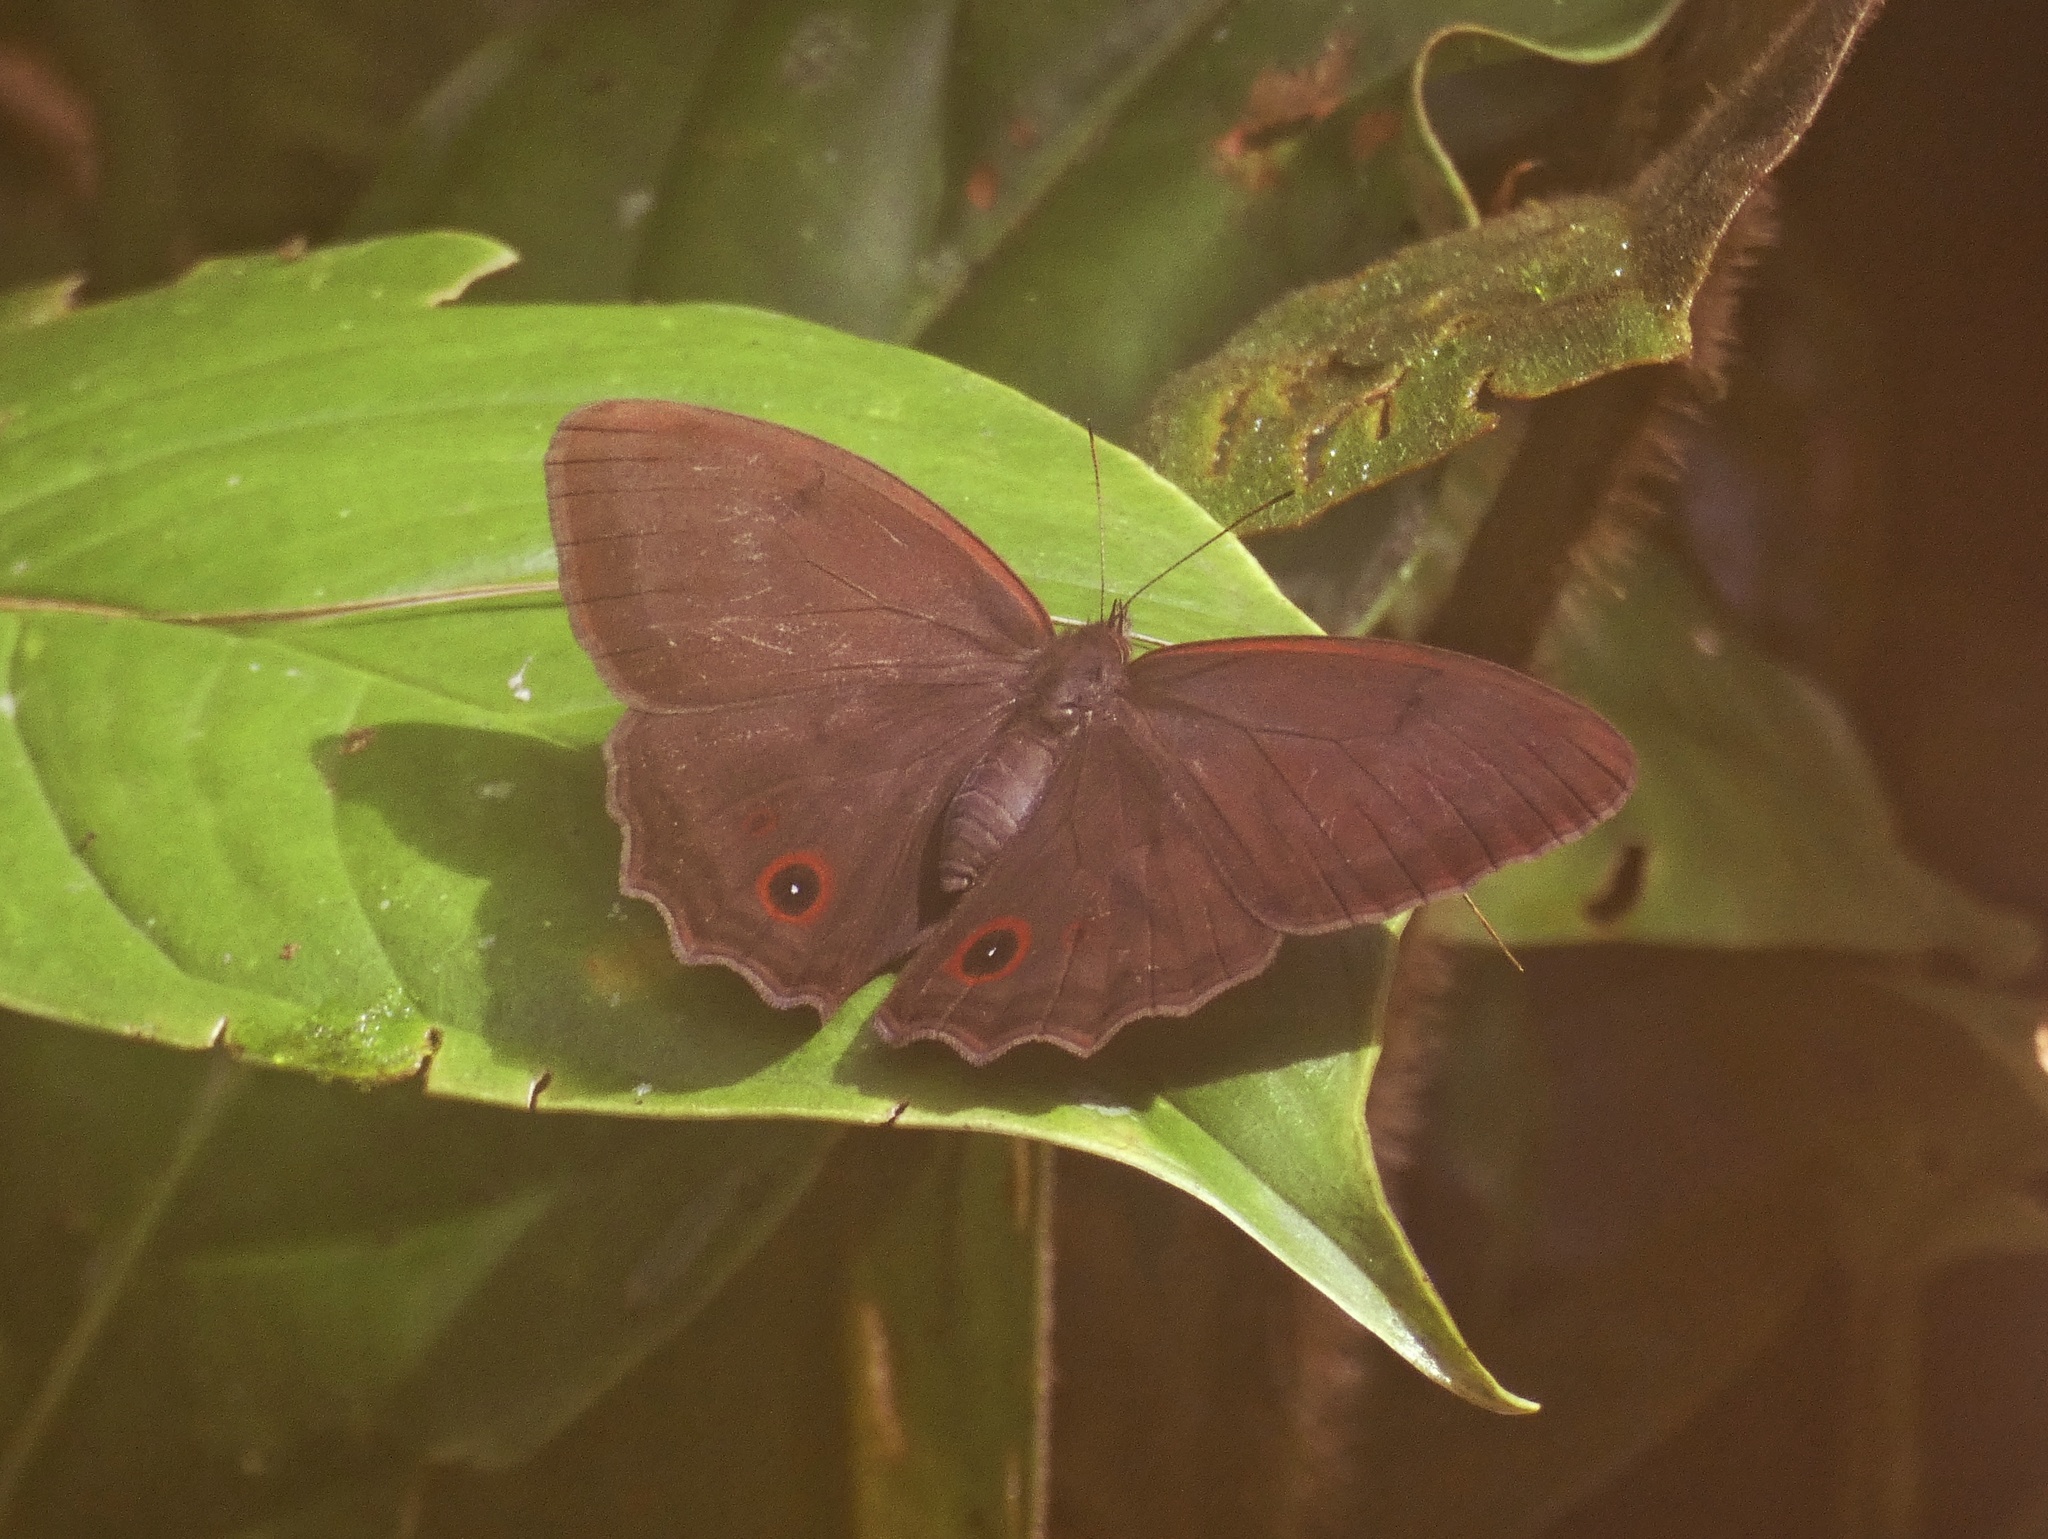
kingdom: Animalia
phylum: Arthropoda
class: Insecta
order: Lepidoptera
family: Nymphalidae
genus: Satyrotaygetis
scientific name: Satyrotaygetis
